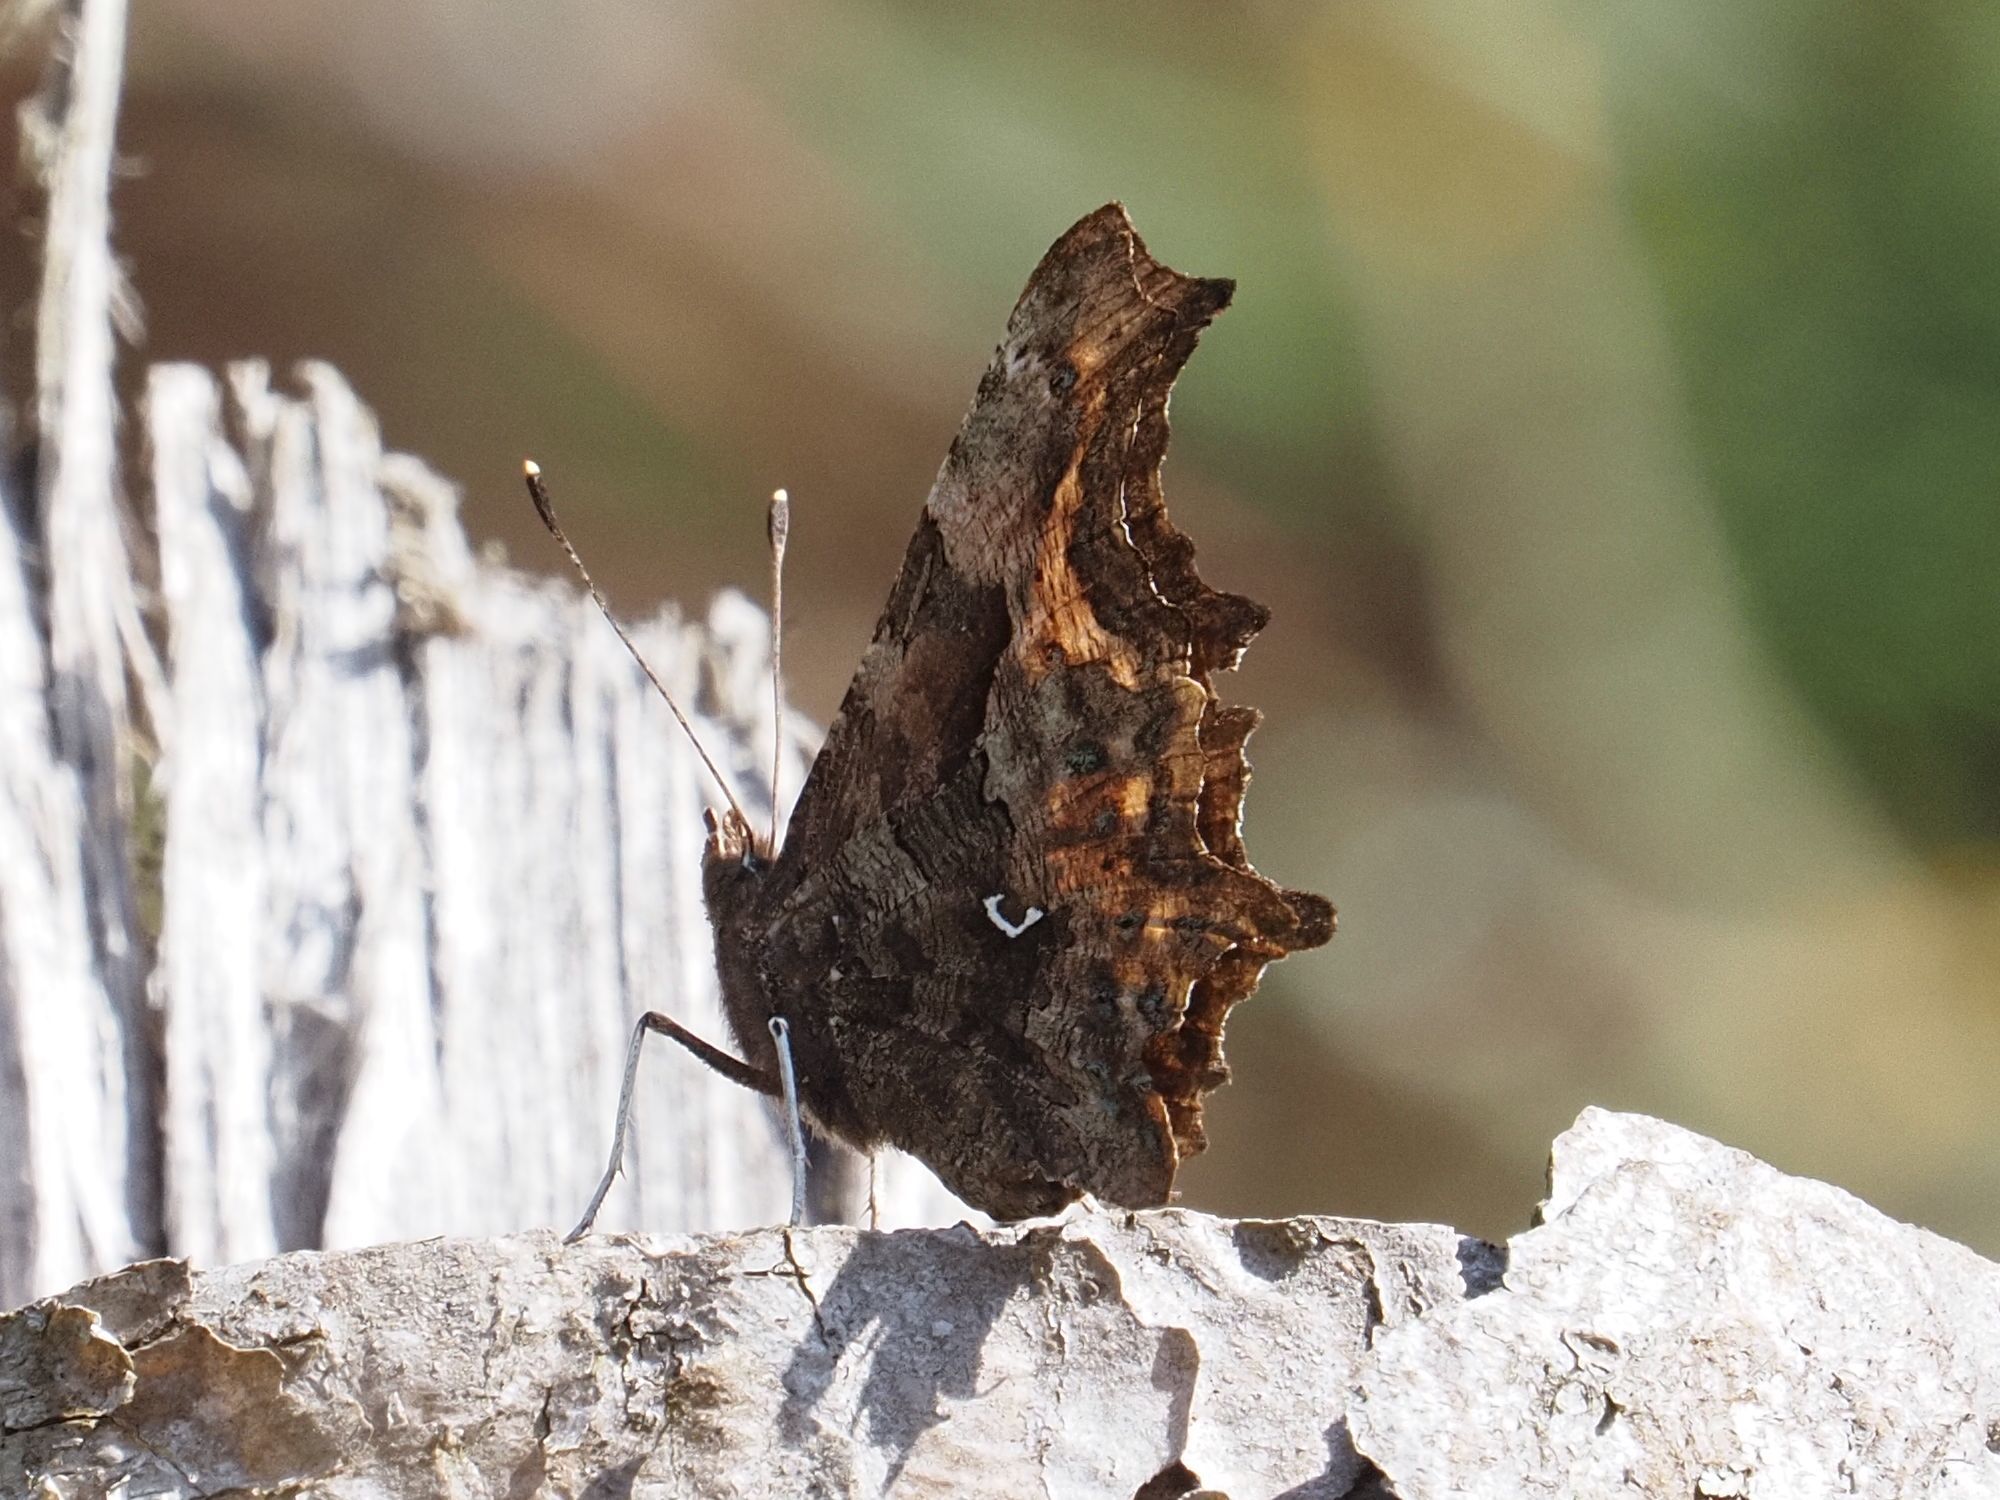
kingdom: Animalia
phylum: Arthropoda
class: Insecta
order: Lepidoptera
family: Nymphalidae
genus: Polygonia
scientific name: Polygonia c-album
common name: Comma
